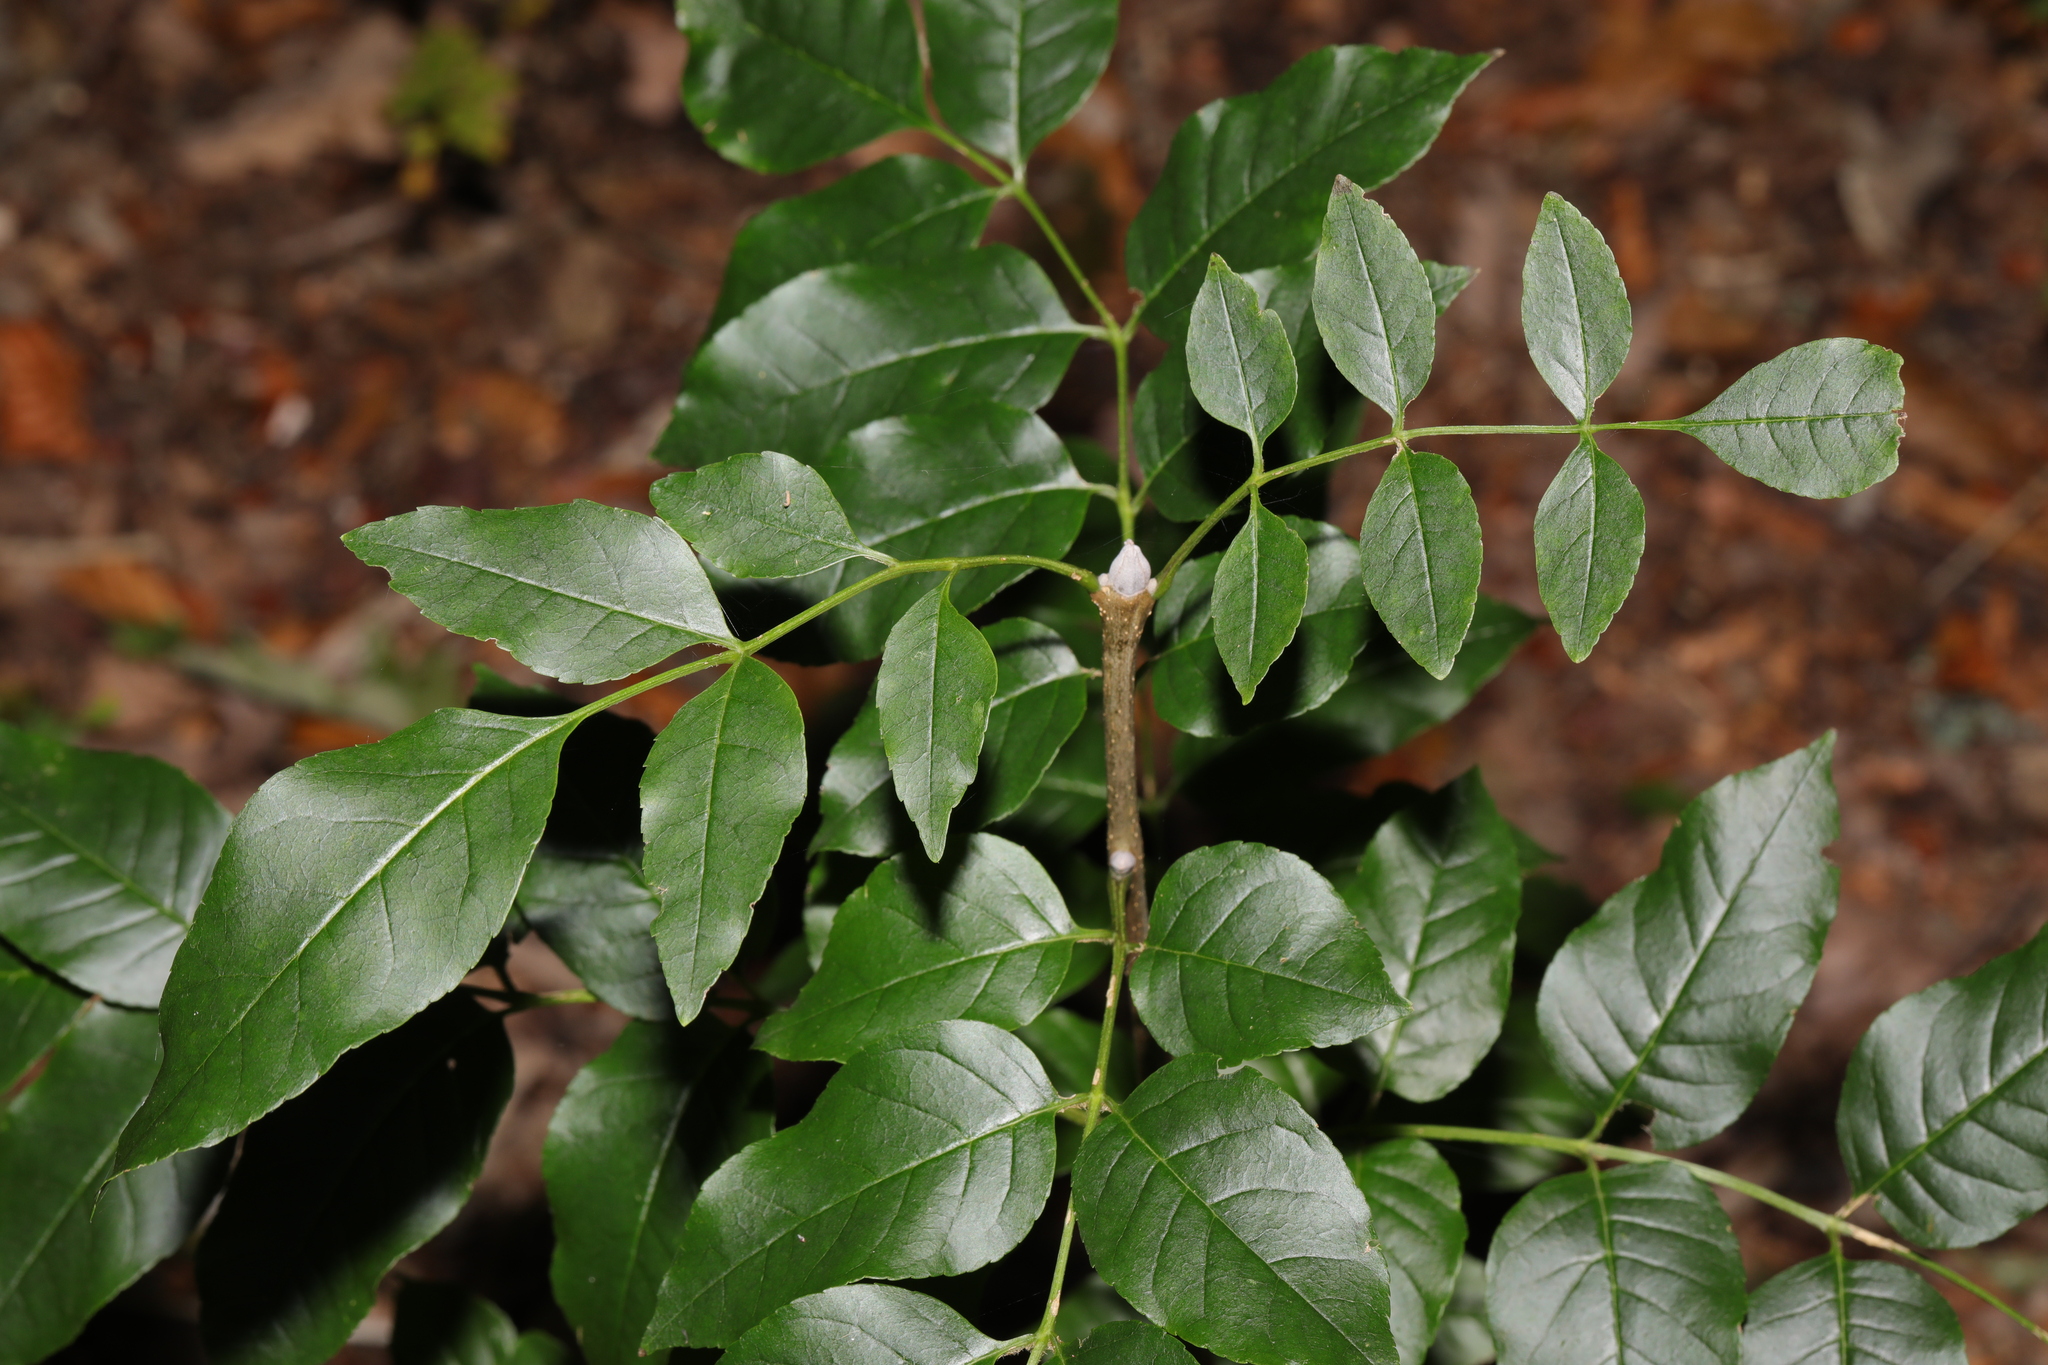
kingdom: Plantae
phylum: Tracheophyta
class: Magnoliopsida
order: Lamiales
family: Oleaceae
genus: Fraxinus
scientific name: Fraxinus excelsior
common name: European ash
